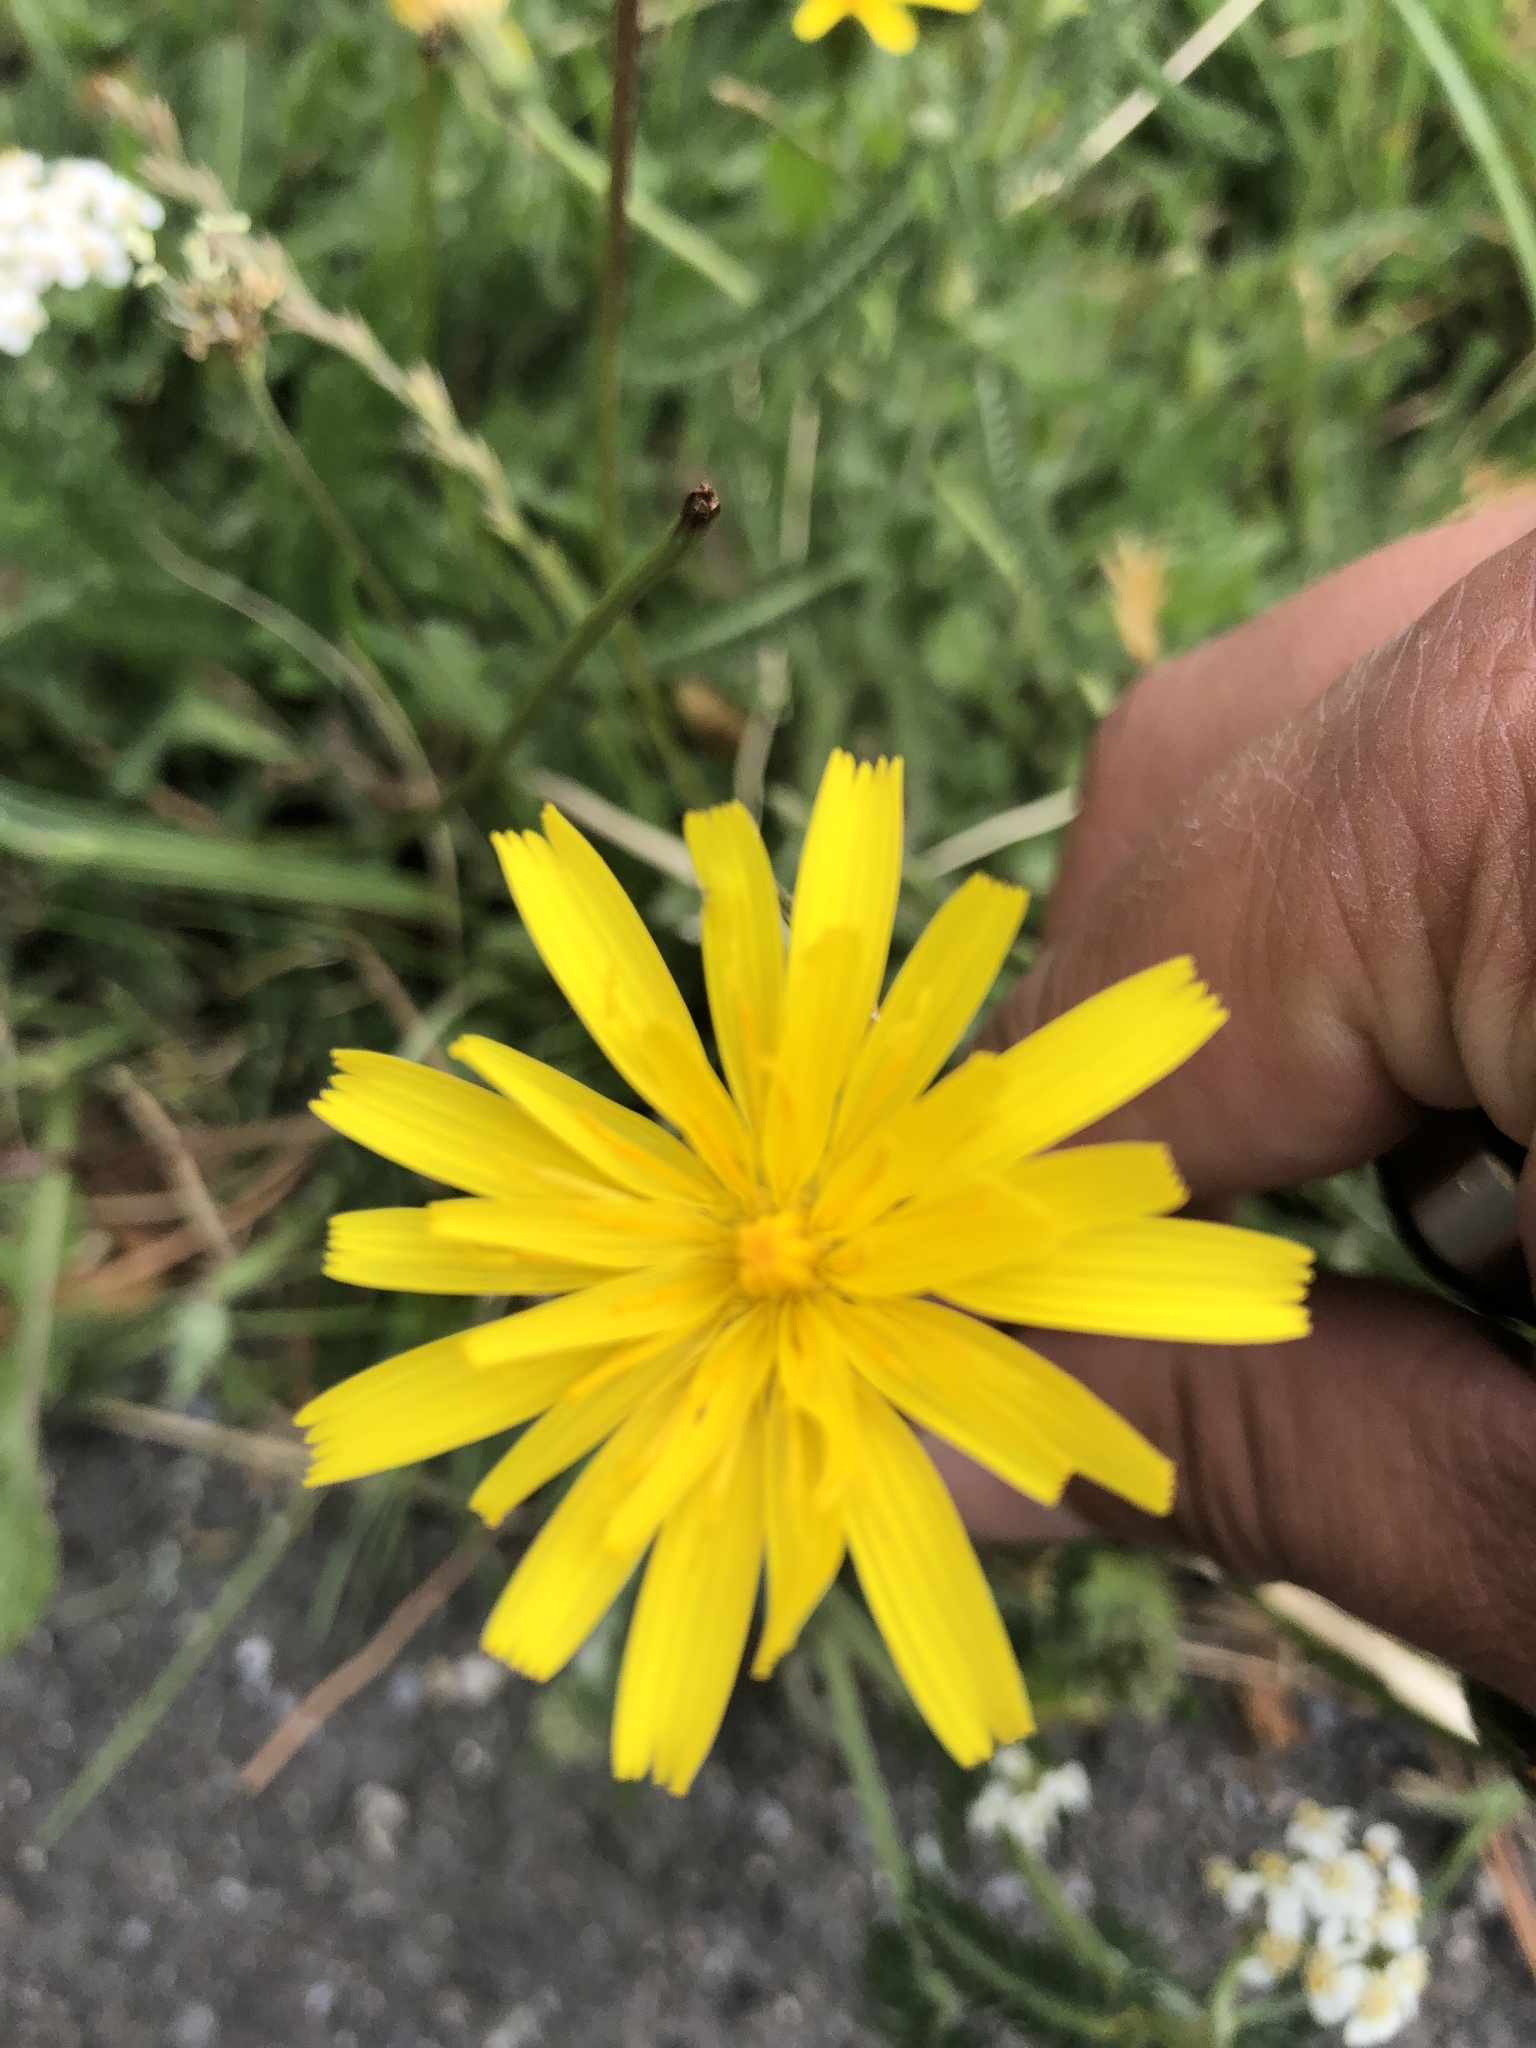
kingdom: Plantae
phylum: Tracheophyta
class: Magnoliopsida
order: Asterales
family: Asteraceae
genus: Hypochaeris
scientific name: Hypochaeris radicata
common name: Flatweed
